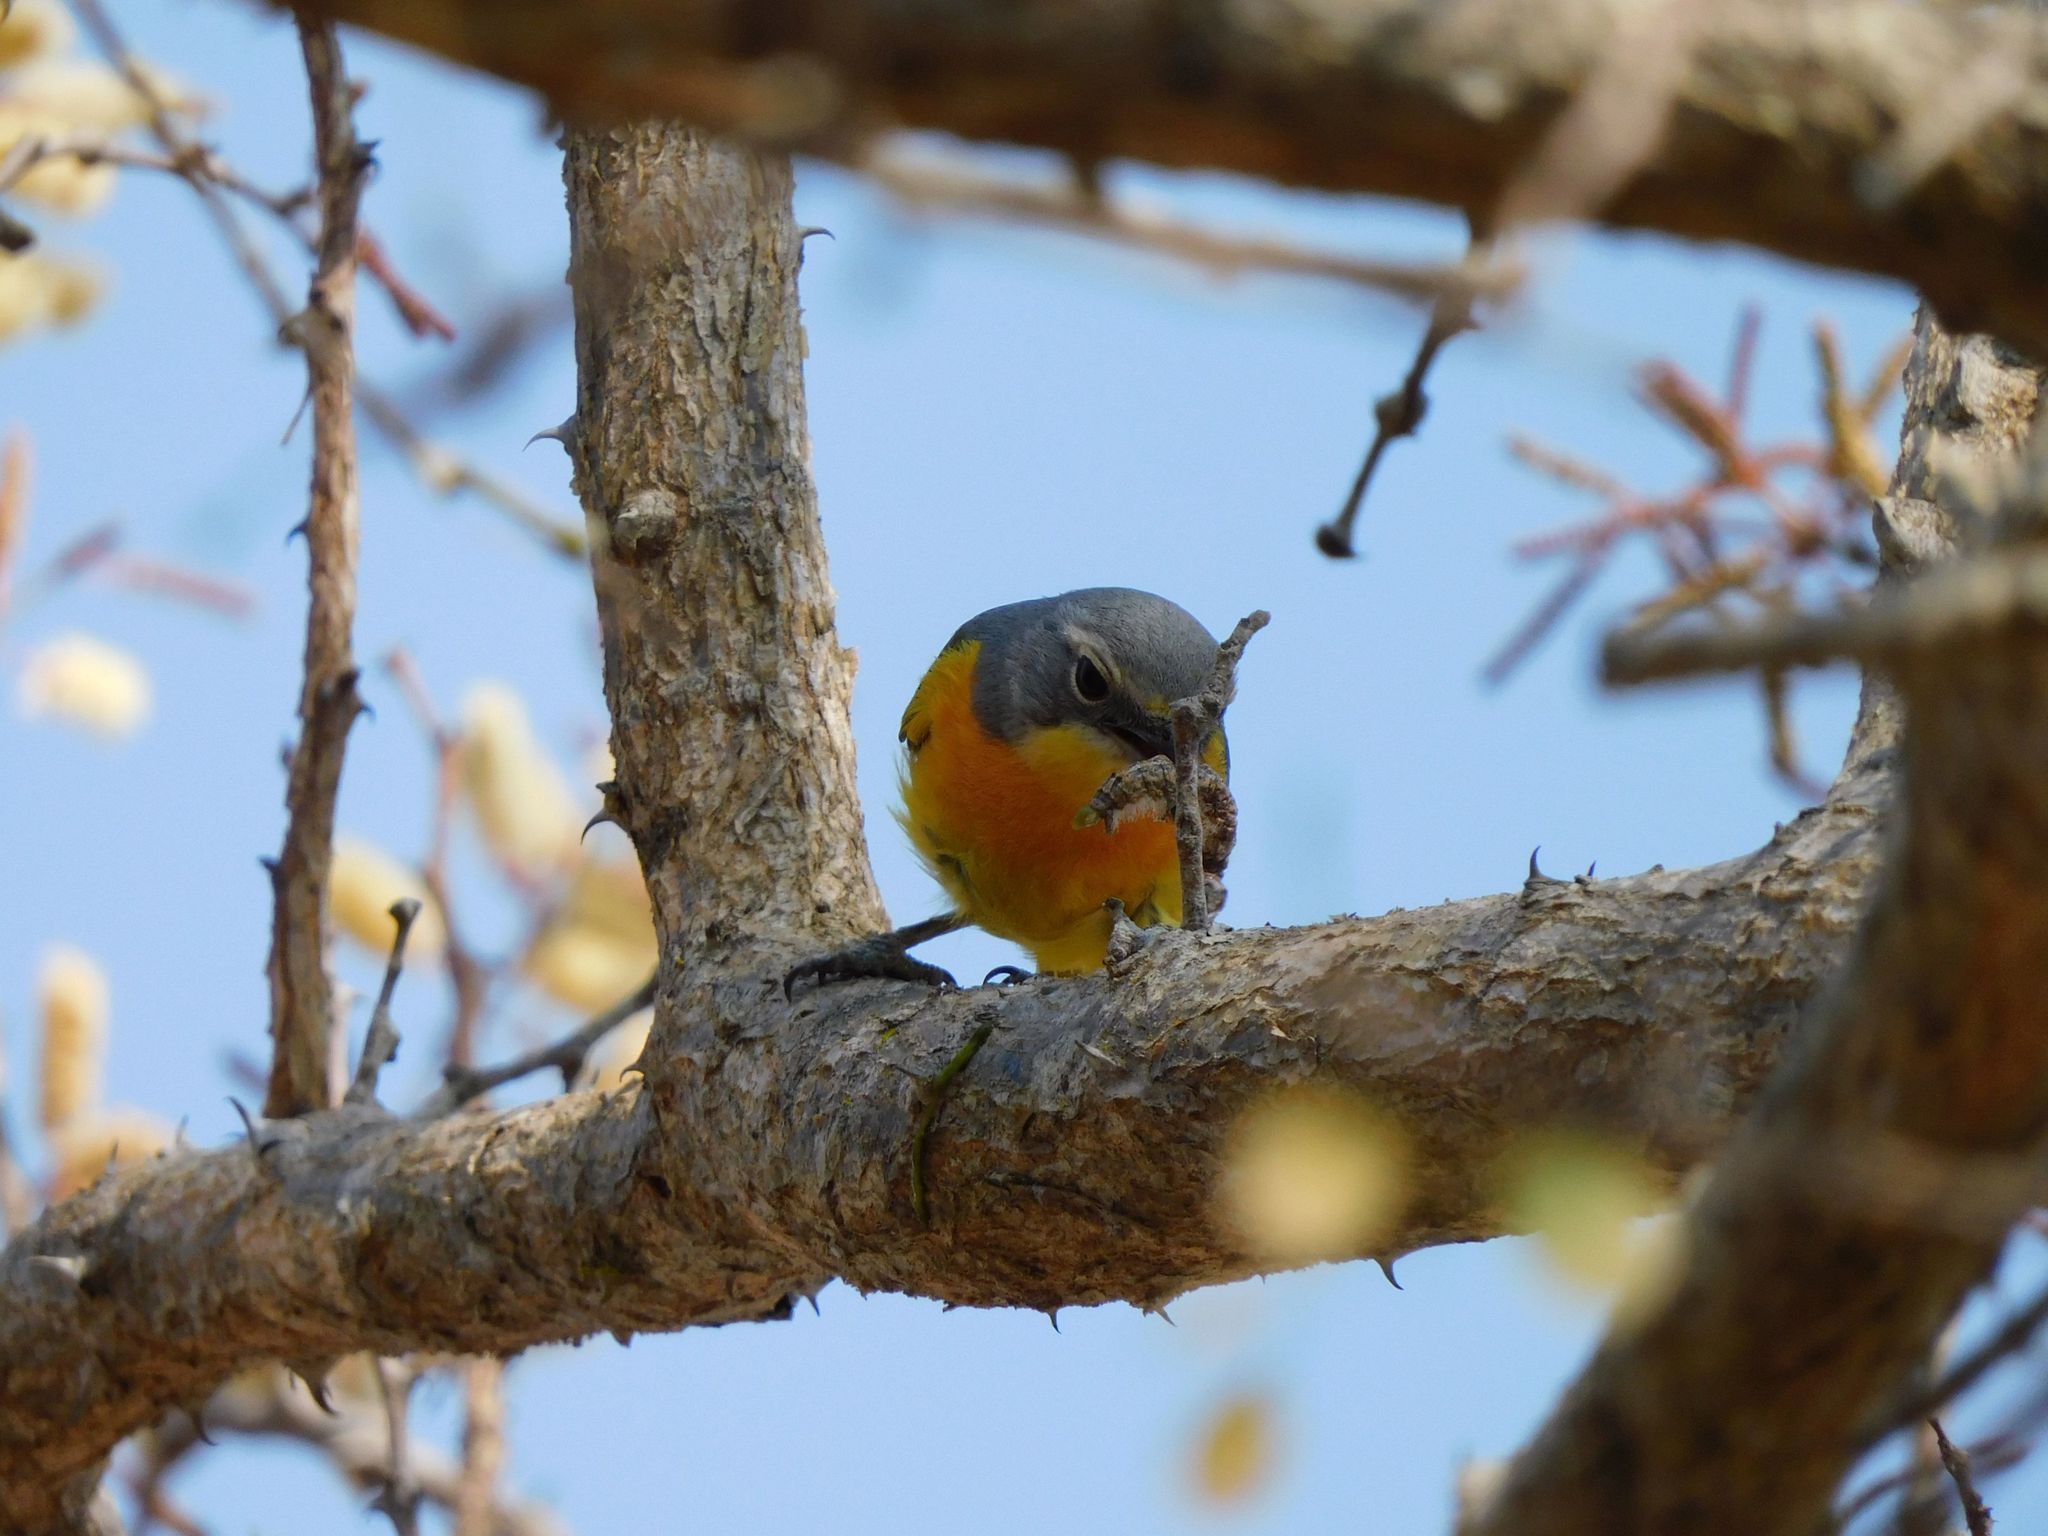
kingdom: Animalia
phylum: Chordata
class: Aves
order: Passeriformes
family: Malaconotidae
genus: Chlorophoneus
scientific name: Chlorophoneus sulfureopectus
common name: Orange-breasted bushshrike
